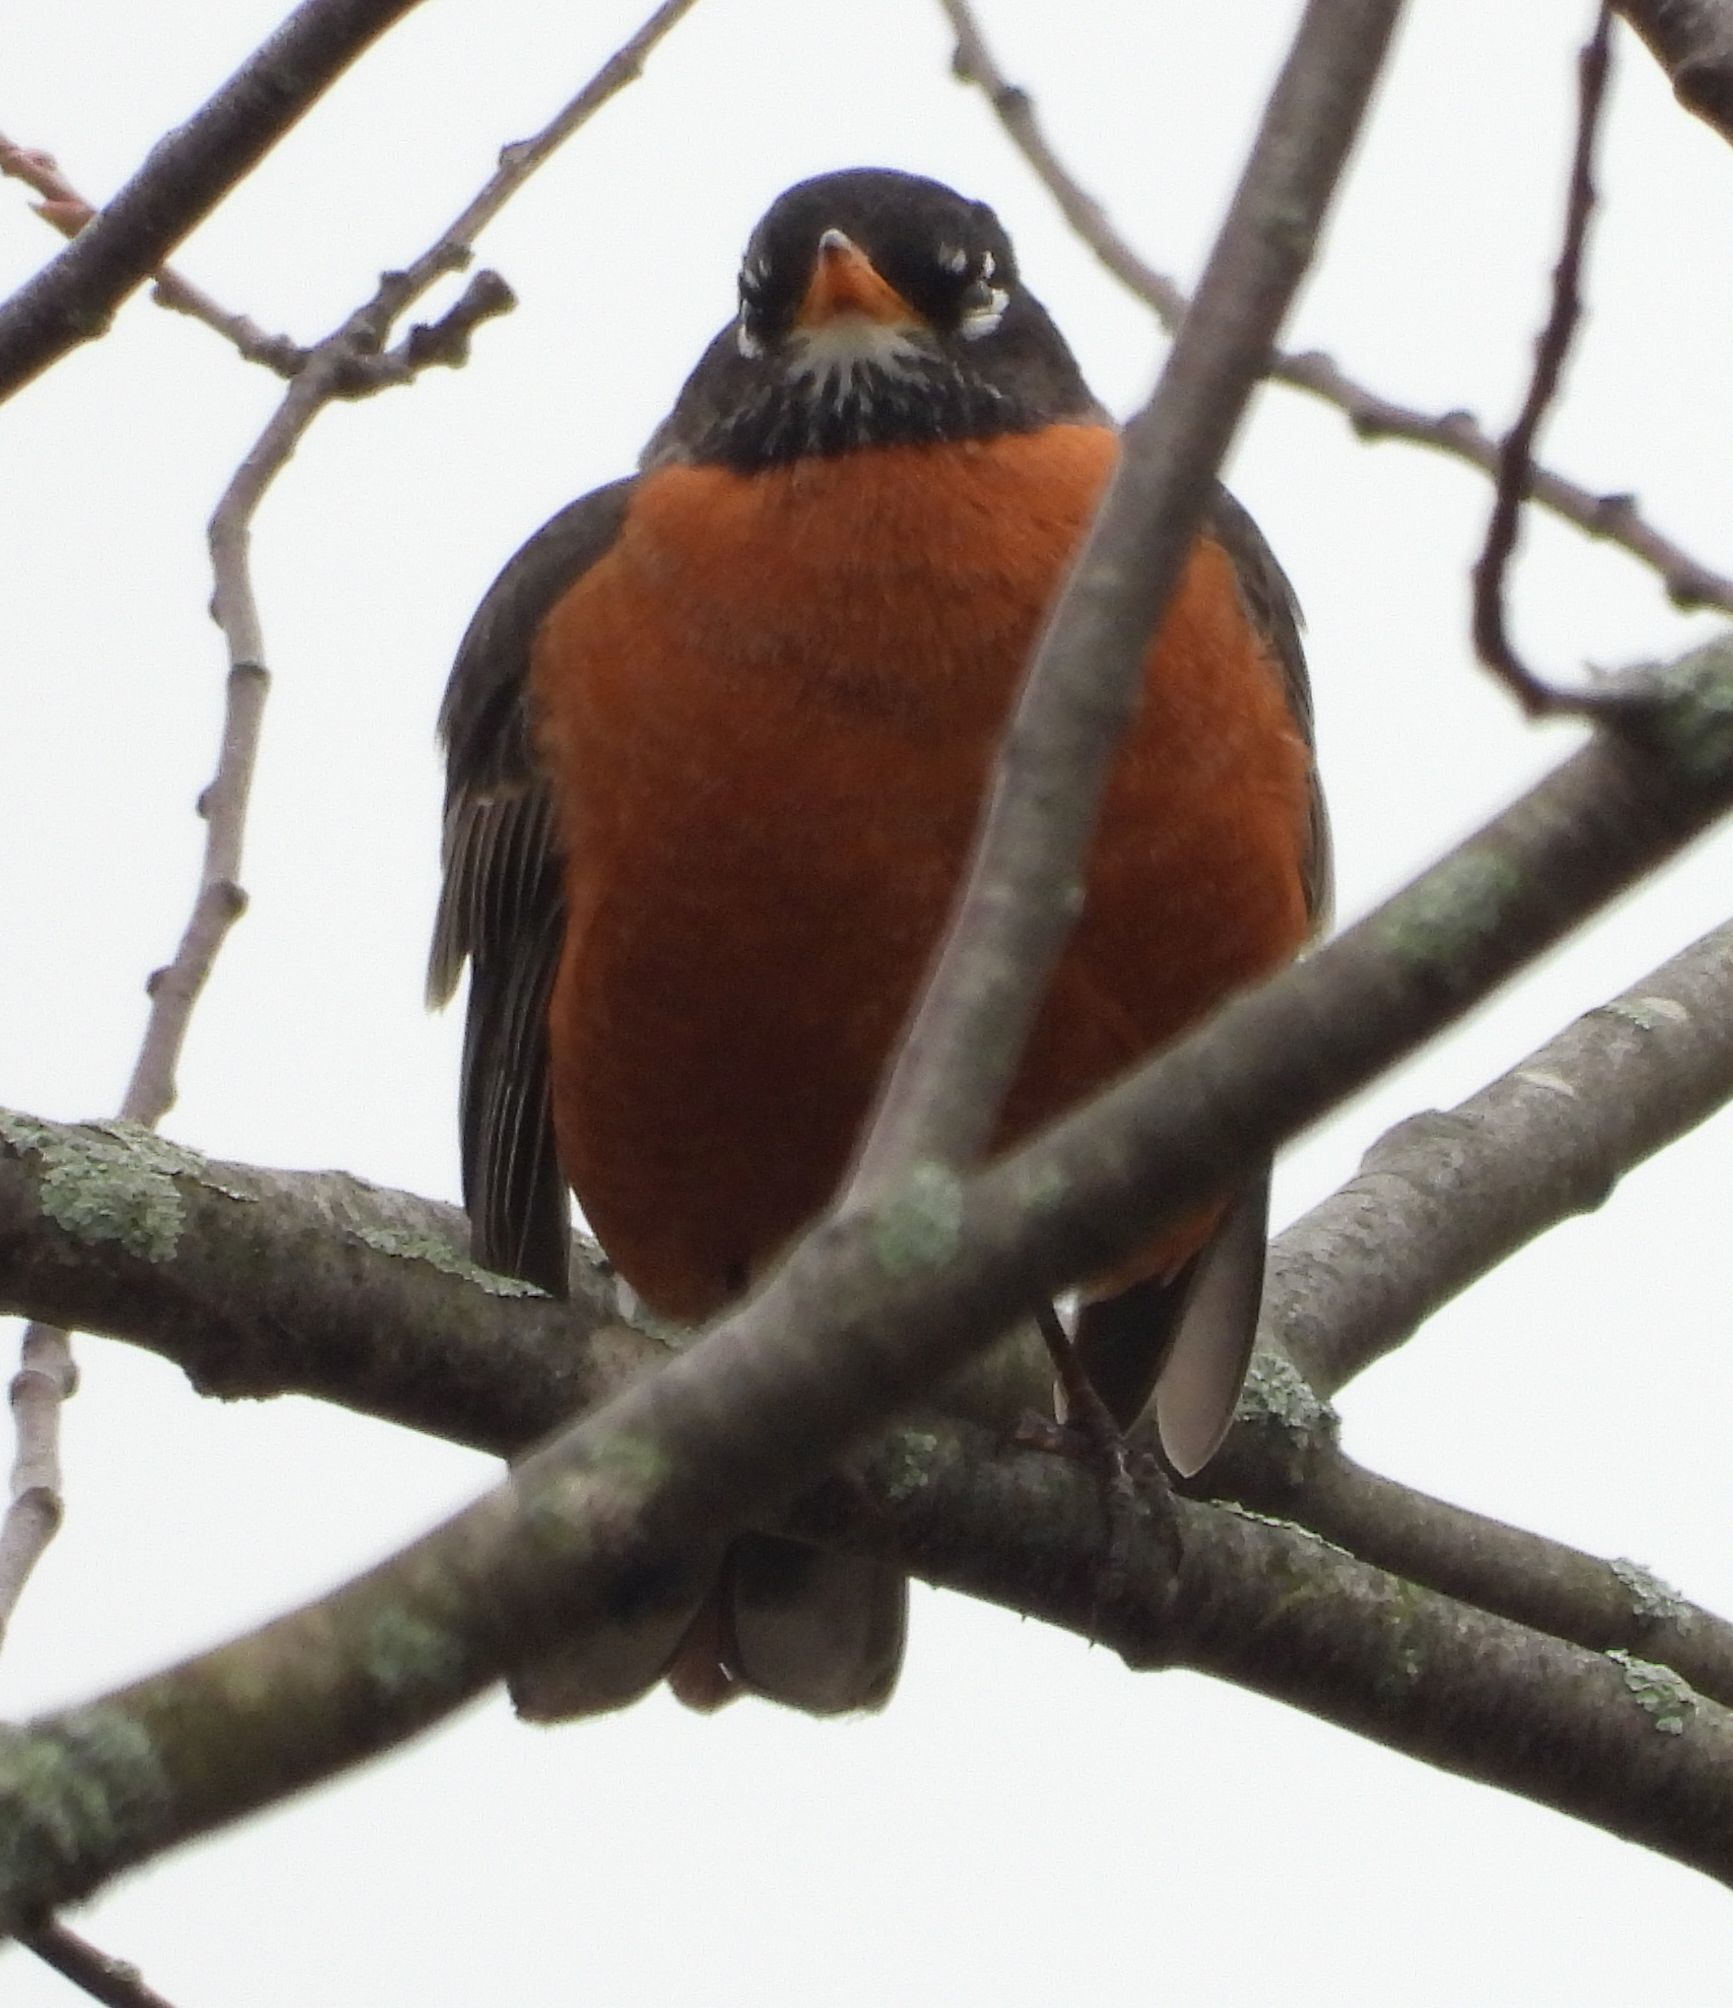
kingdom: Animalia
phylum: Chordata
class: Aves
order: Passeriformes
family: Turdidae
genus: Turdus
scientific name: Turdus migratorius
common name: American robin
